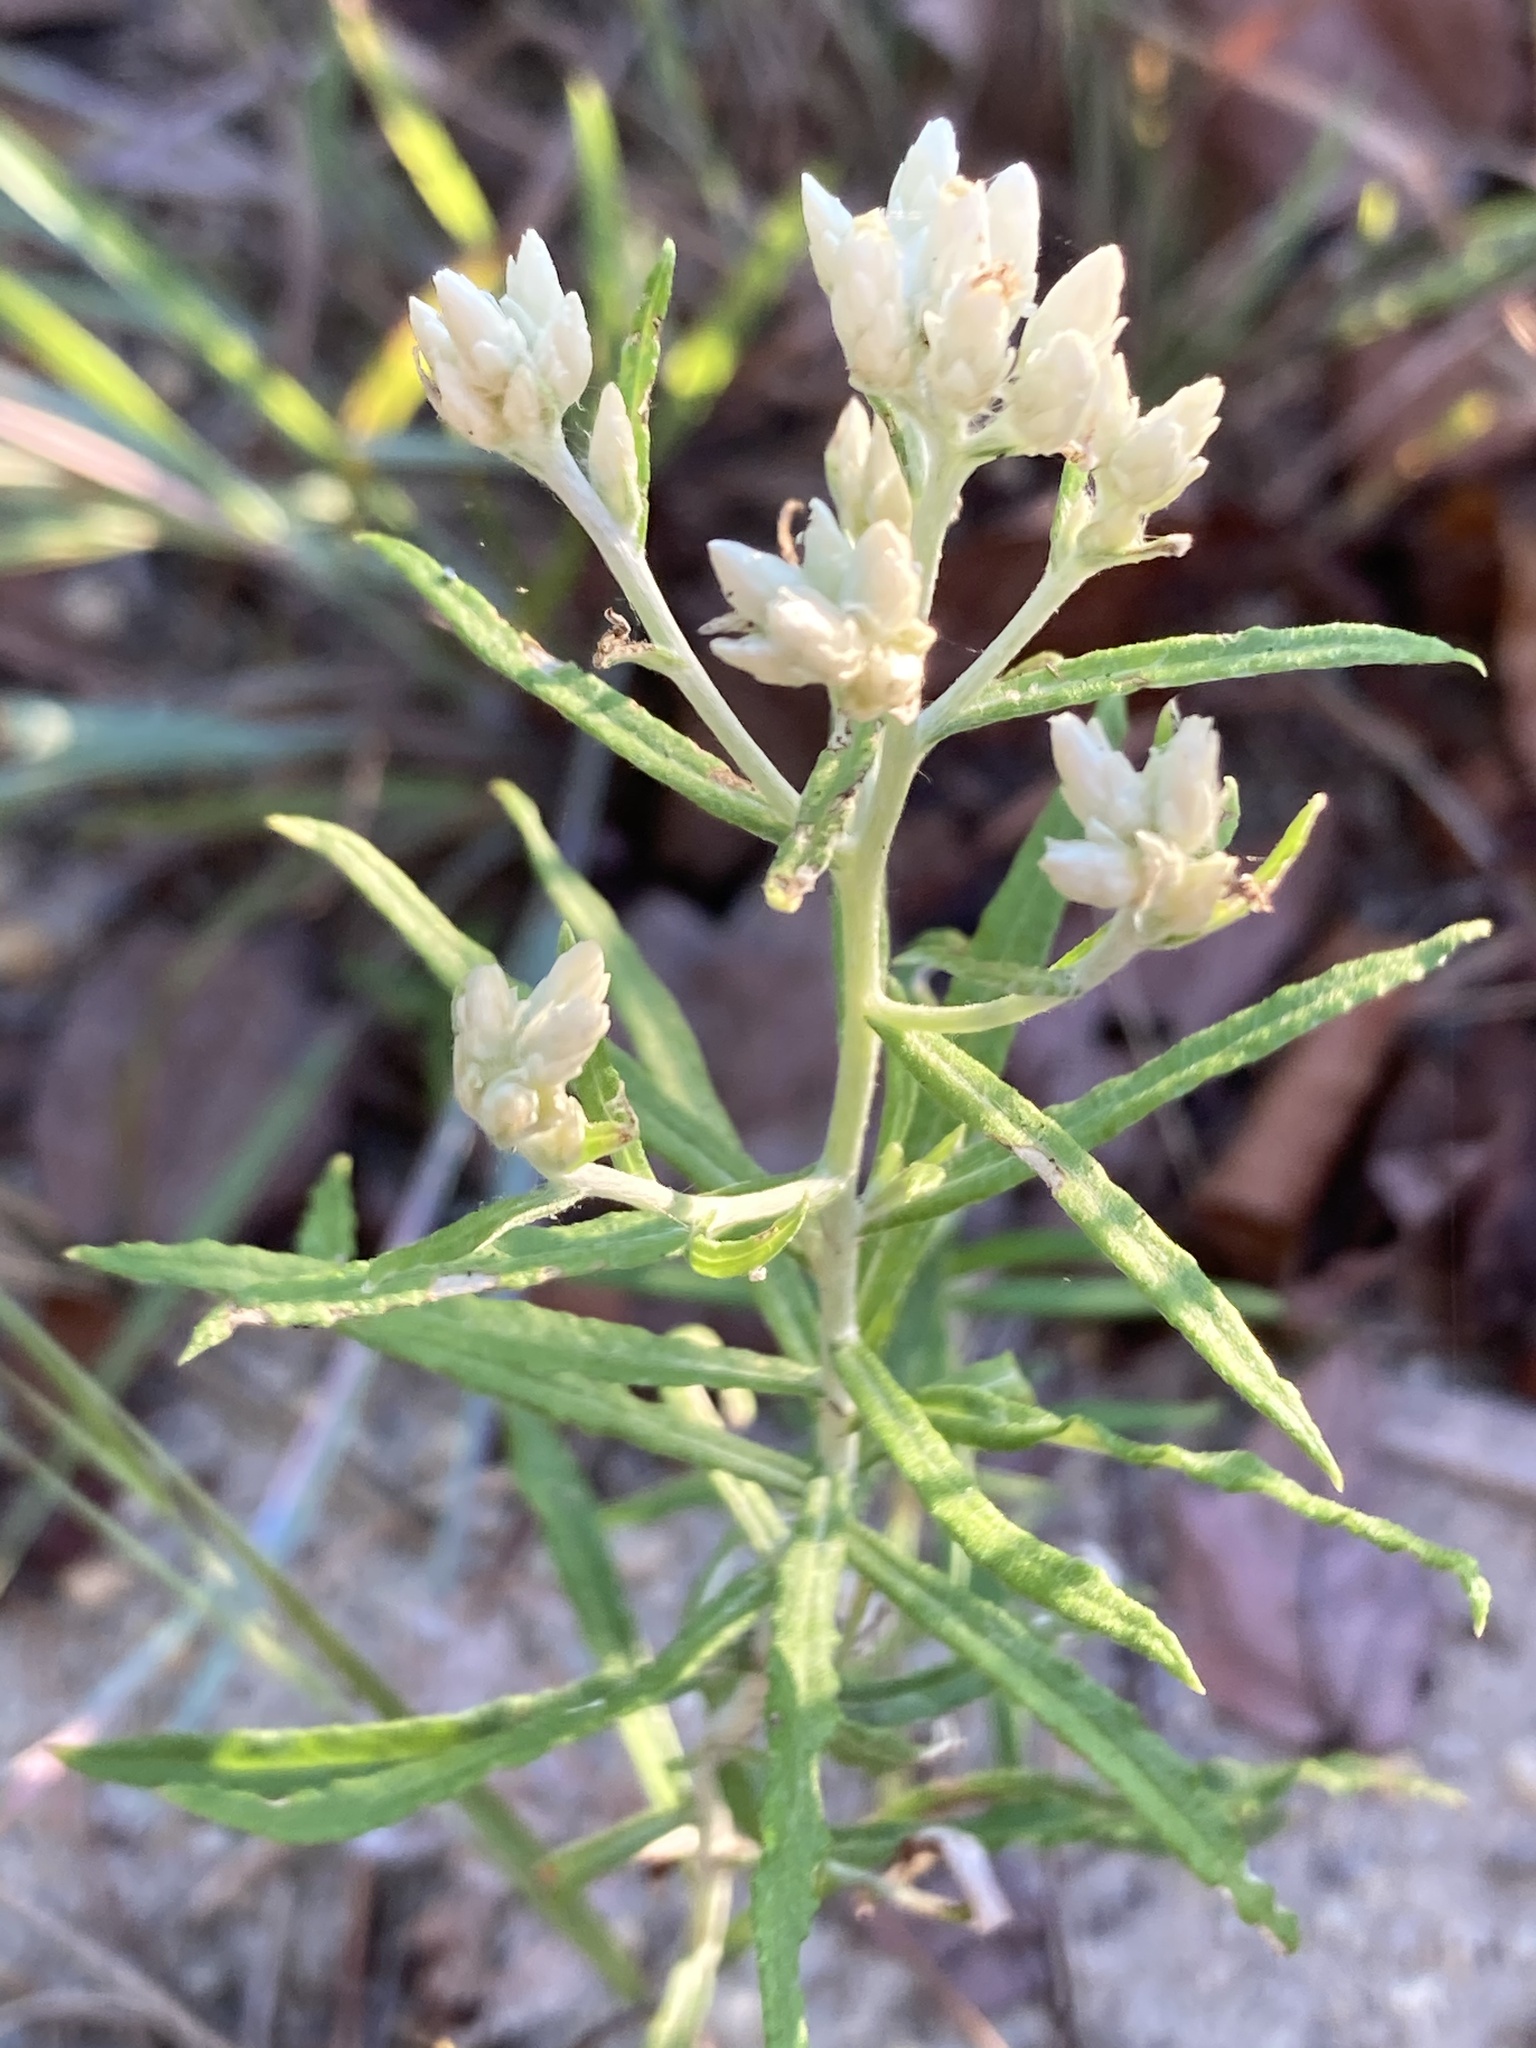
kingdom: Plantae
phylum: Tracheophyta
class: Magnoliopsida
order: Asterales
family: Asteraceae
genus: Pseudognaphalium
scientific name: Pseudognaphalium obtusifolium
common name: Eastern rabbit-tobacco
